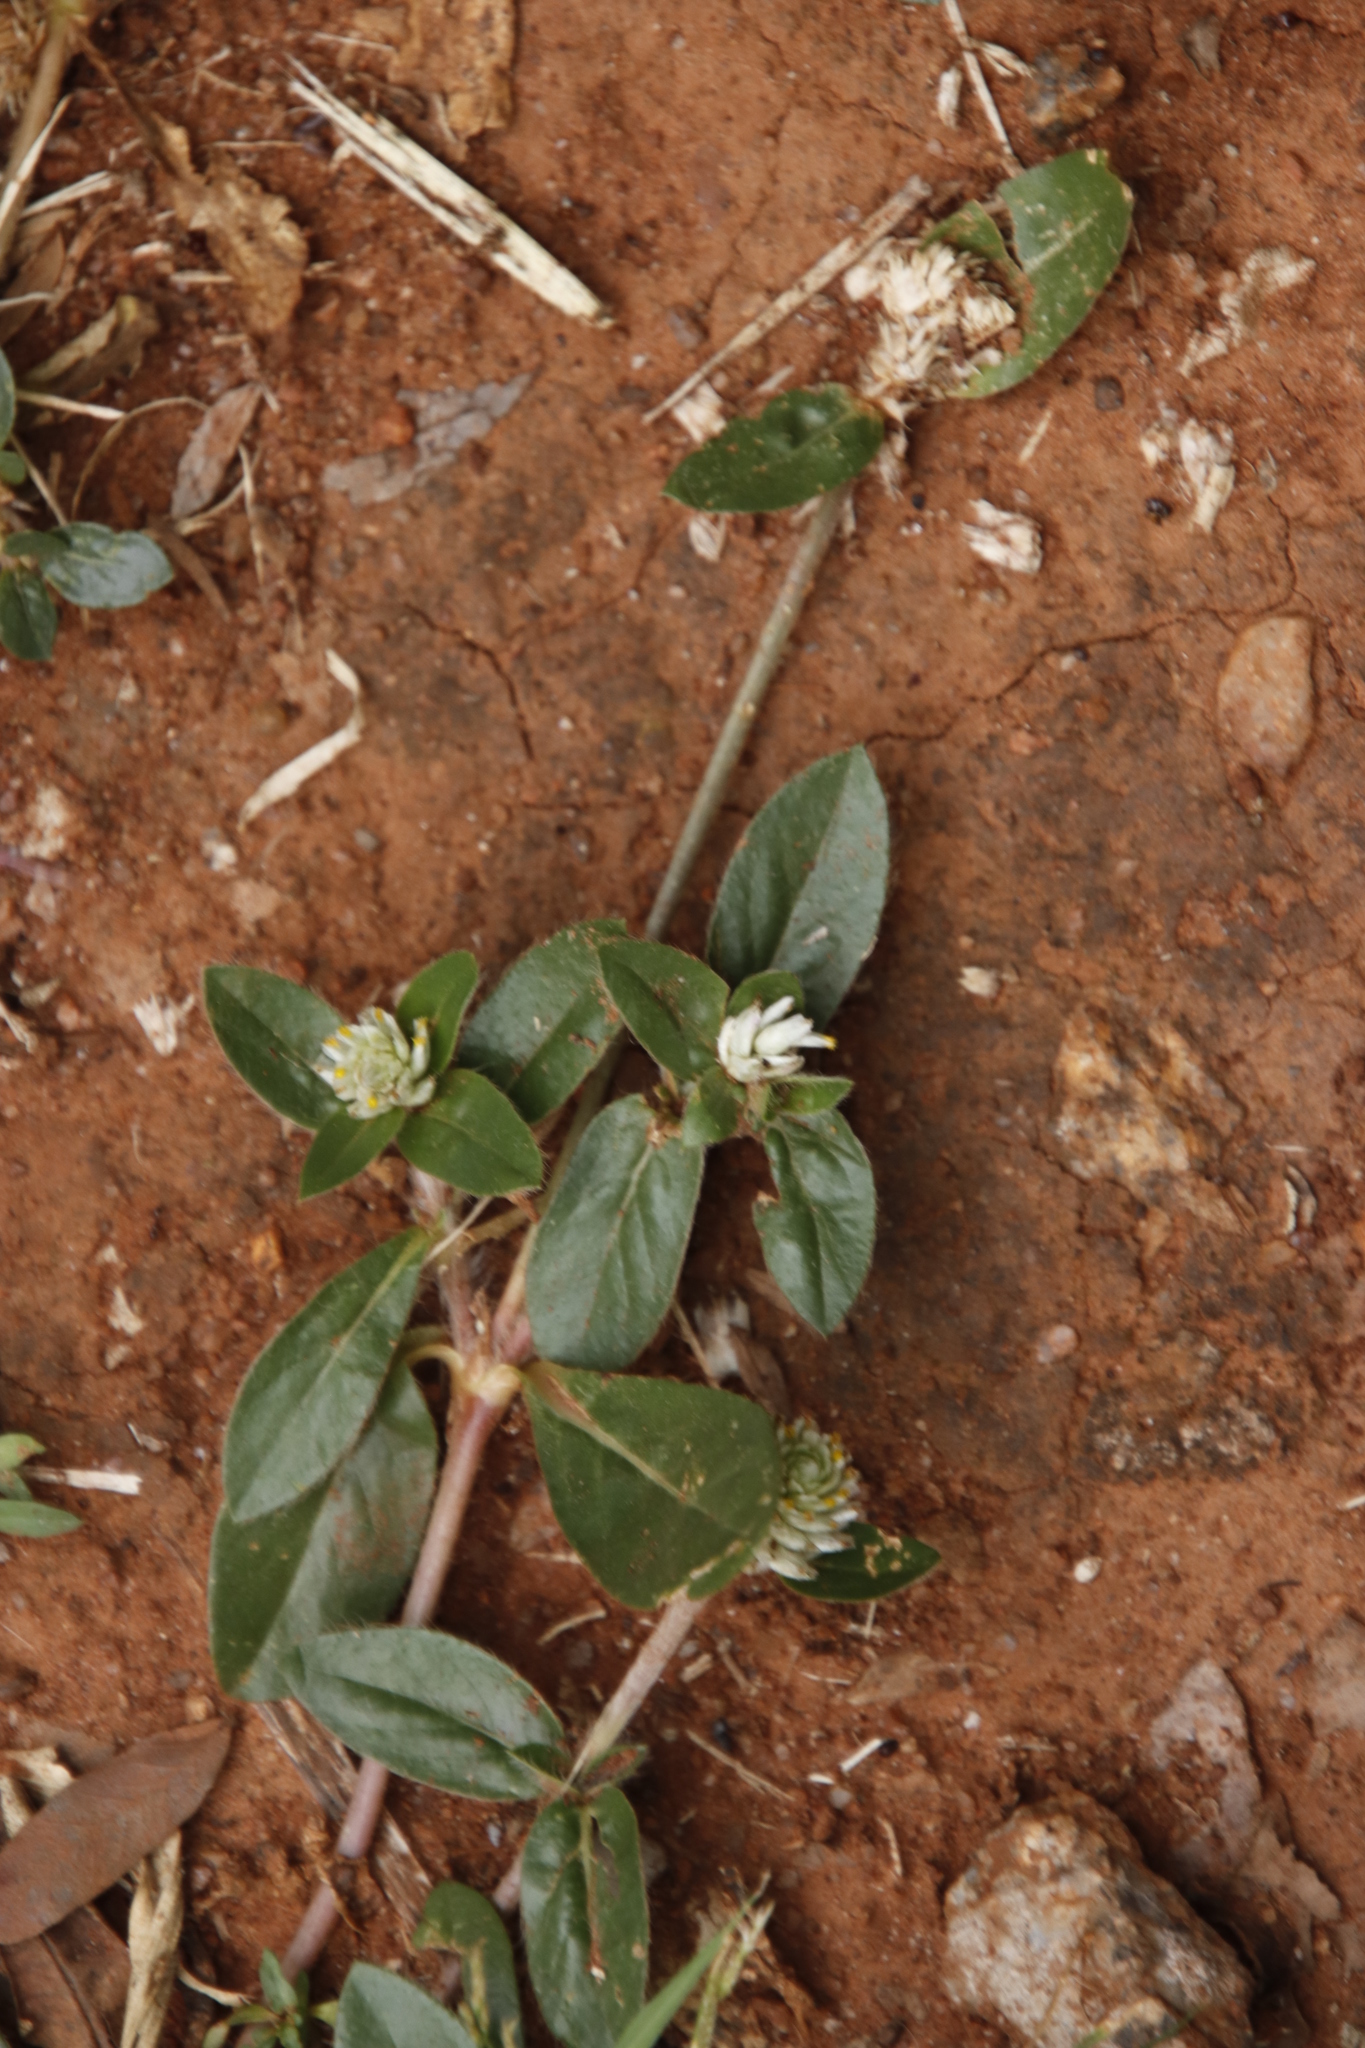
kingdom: Plantae
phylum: Tracheophyta
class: Magnoliopsida
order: Caryophyllales
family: Amaranthaceae
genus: Gomphrena
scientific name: Gomphrena celosioides
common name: Gomphrena-weed
